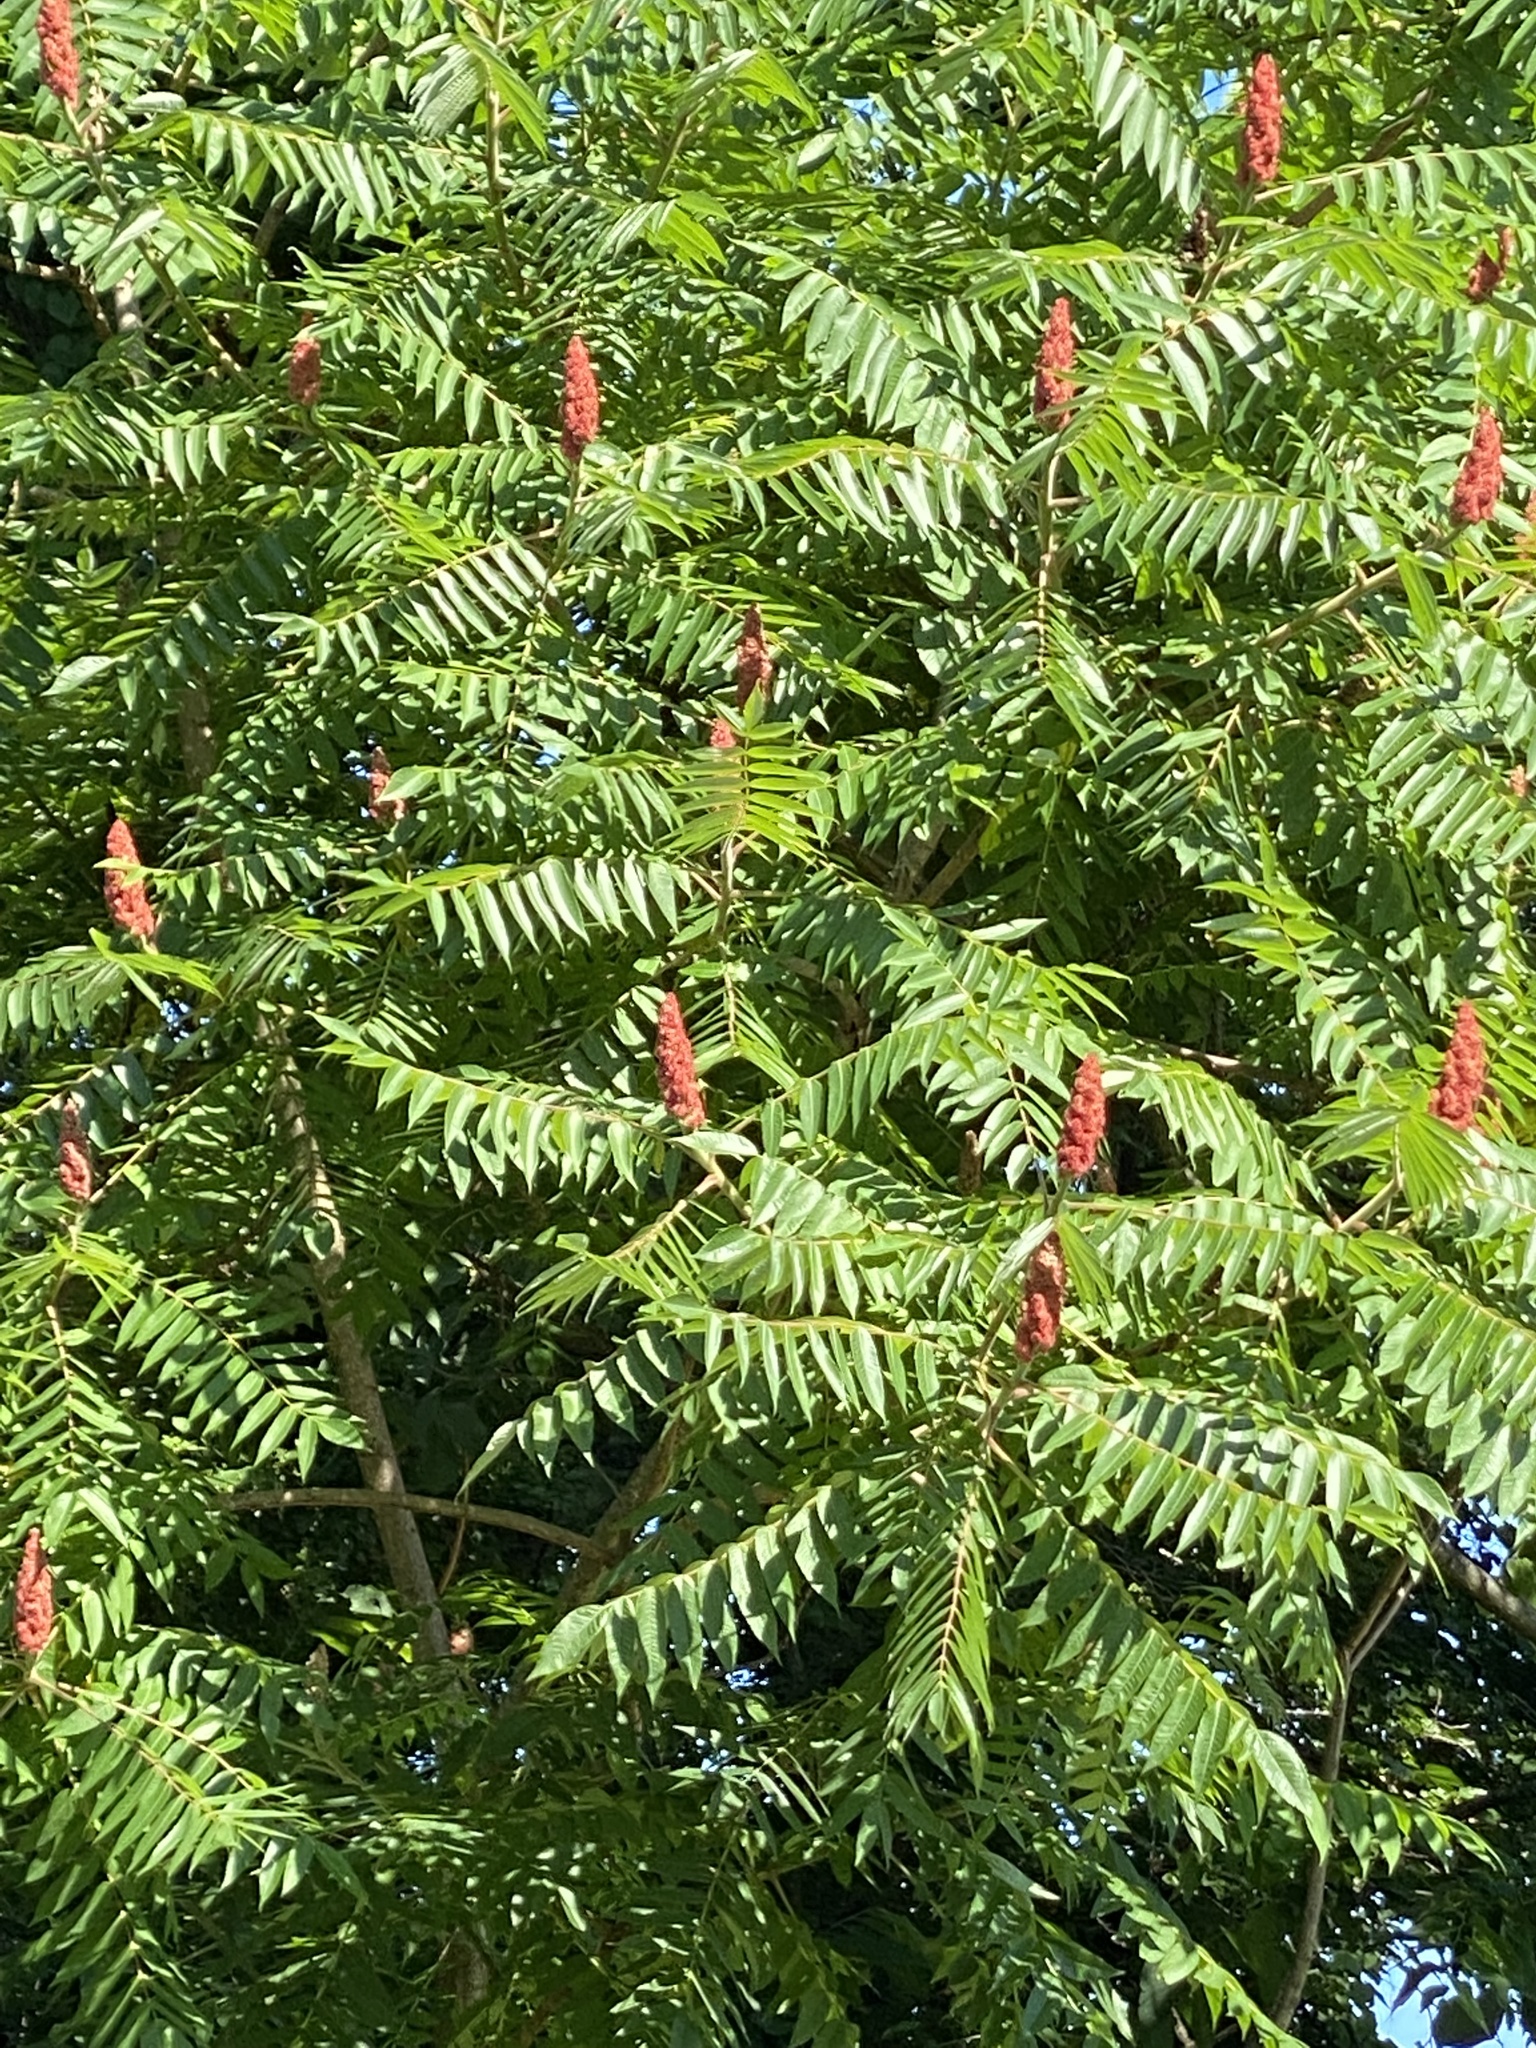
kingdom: Plantae
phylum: Tracheophyta
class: Magnoliopsida
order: Sapindales
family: Anacardiaceae
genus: Rhus
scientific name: Rhus typhina
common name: Staghorn sumac
